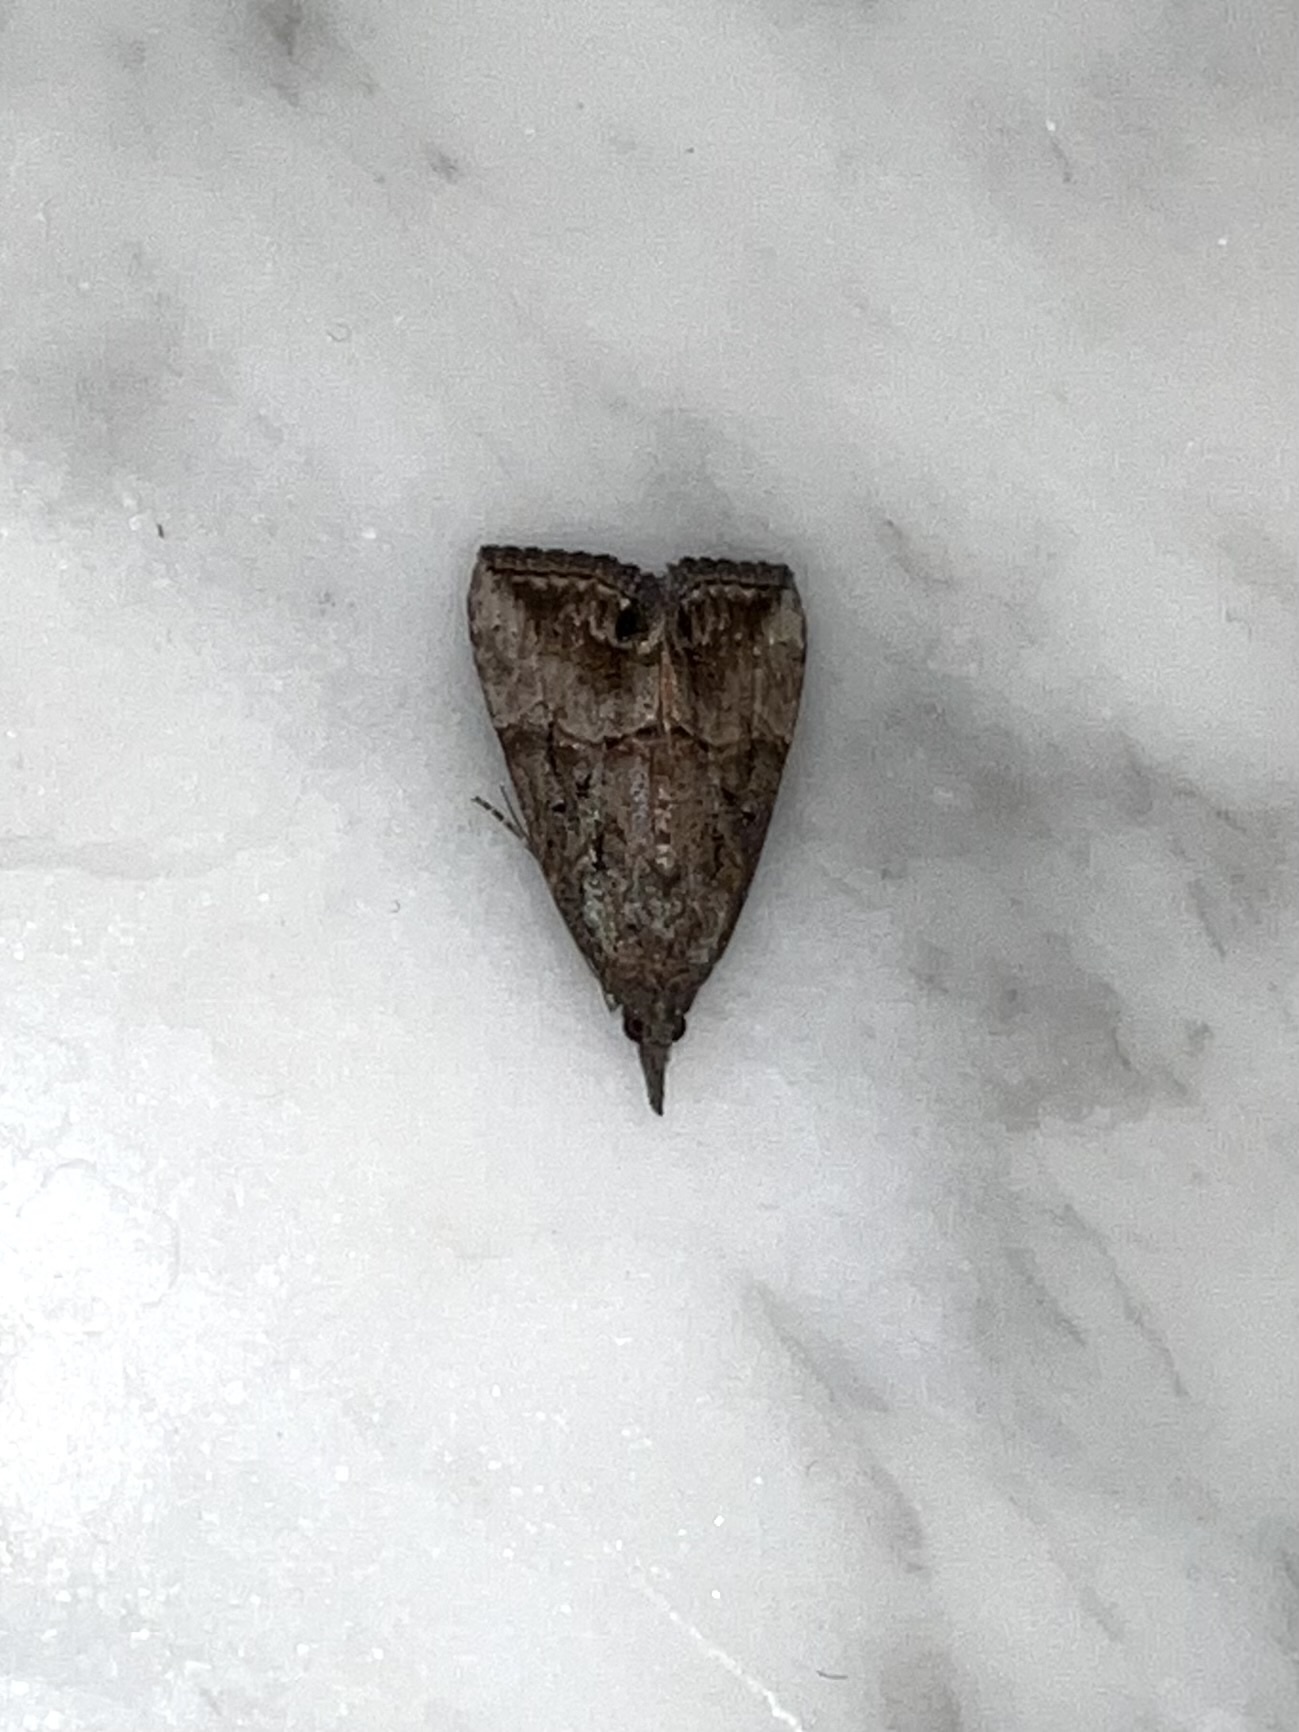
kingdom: Animalia
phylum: Arthropoda
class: Insecta
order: Lepidoptera
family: Erebidae
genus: Hypena
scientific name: Hypena scabra
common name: Green cloverworm
